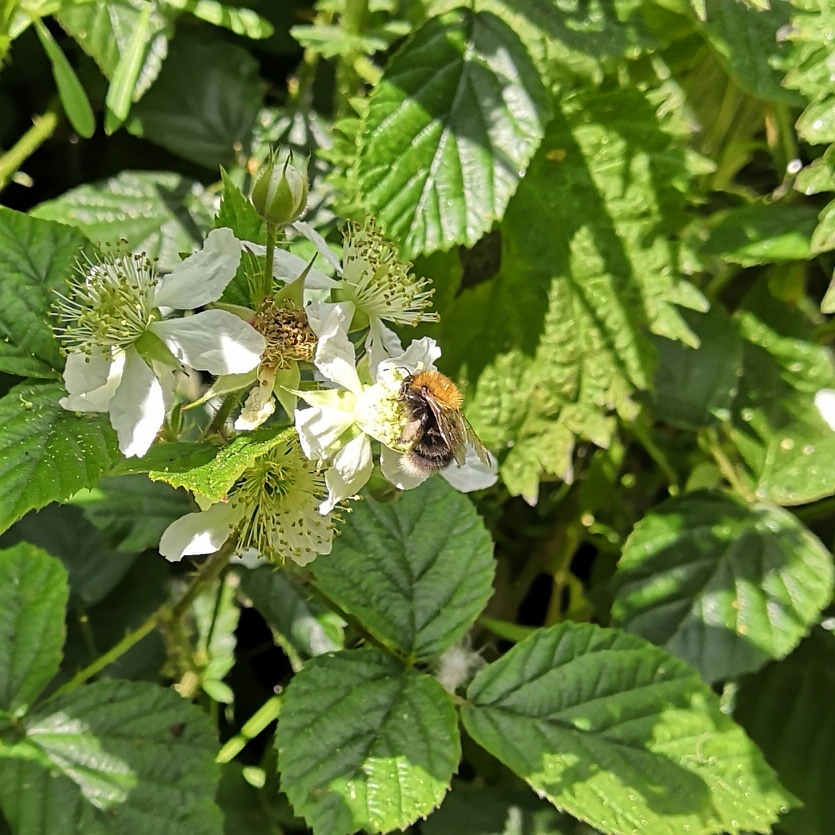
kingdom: Animalia
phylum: Arthropoda
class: Insecta
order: Hymenoptera
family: Apidae
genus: Bombus
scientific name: Bombus hypnorum
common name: New garden bumblebee
